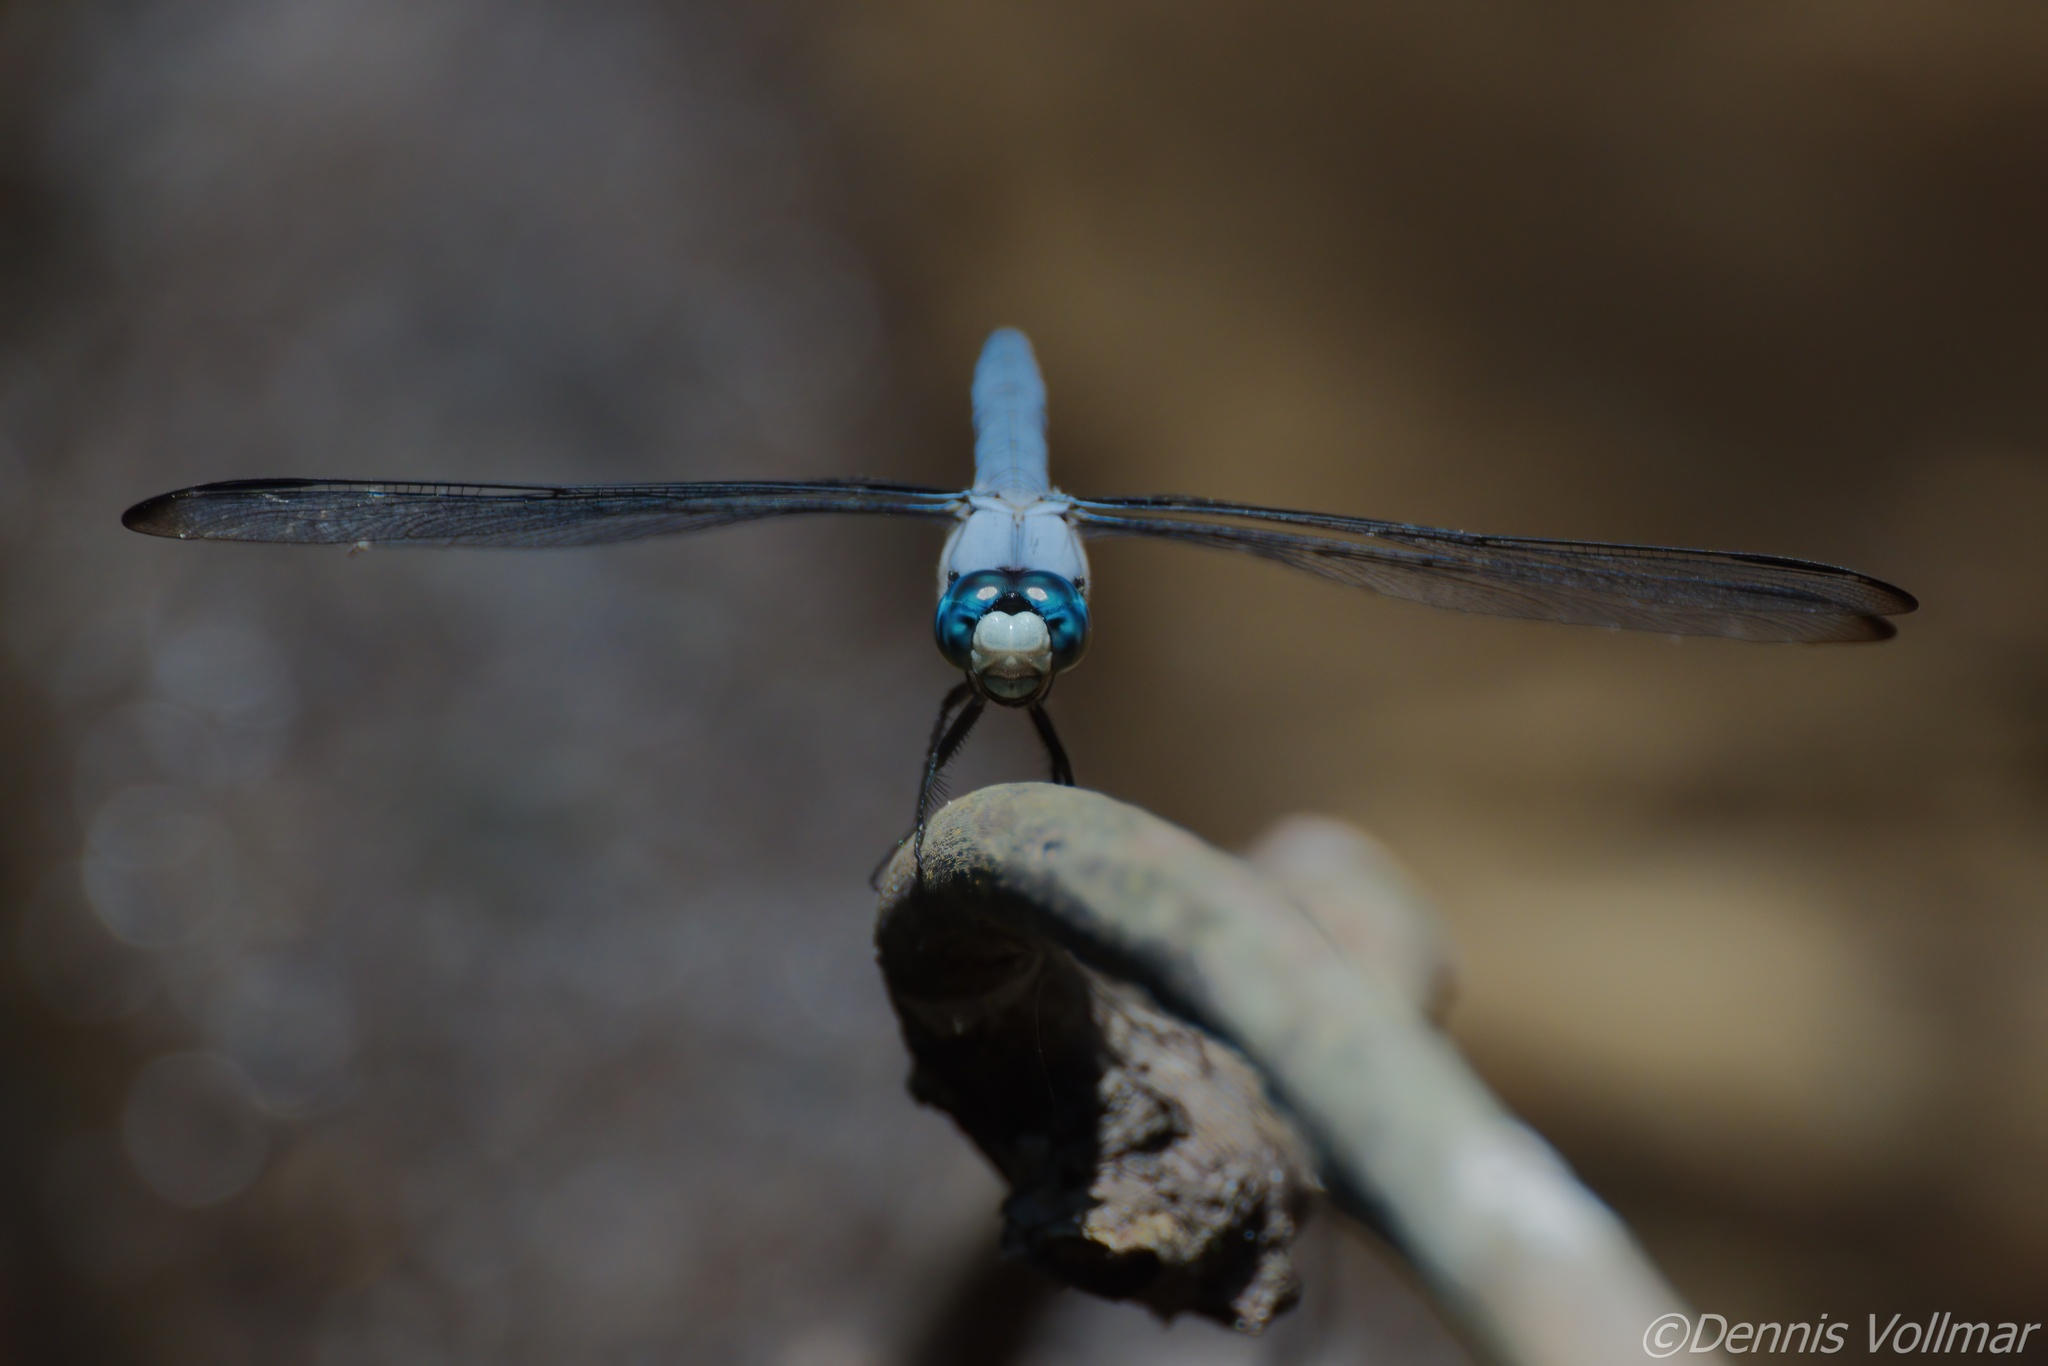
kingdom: Animalia
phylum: Arthropoda
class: Insecta
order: Odonata
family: Libellulidae
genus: Libellula
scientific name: Libellula vibrans
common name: Great blue skimmer
